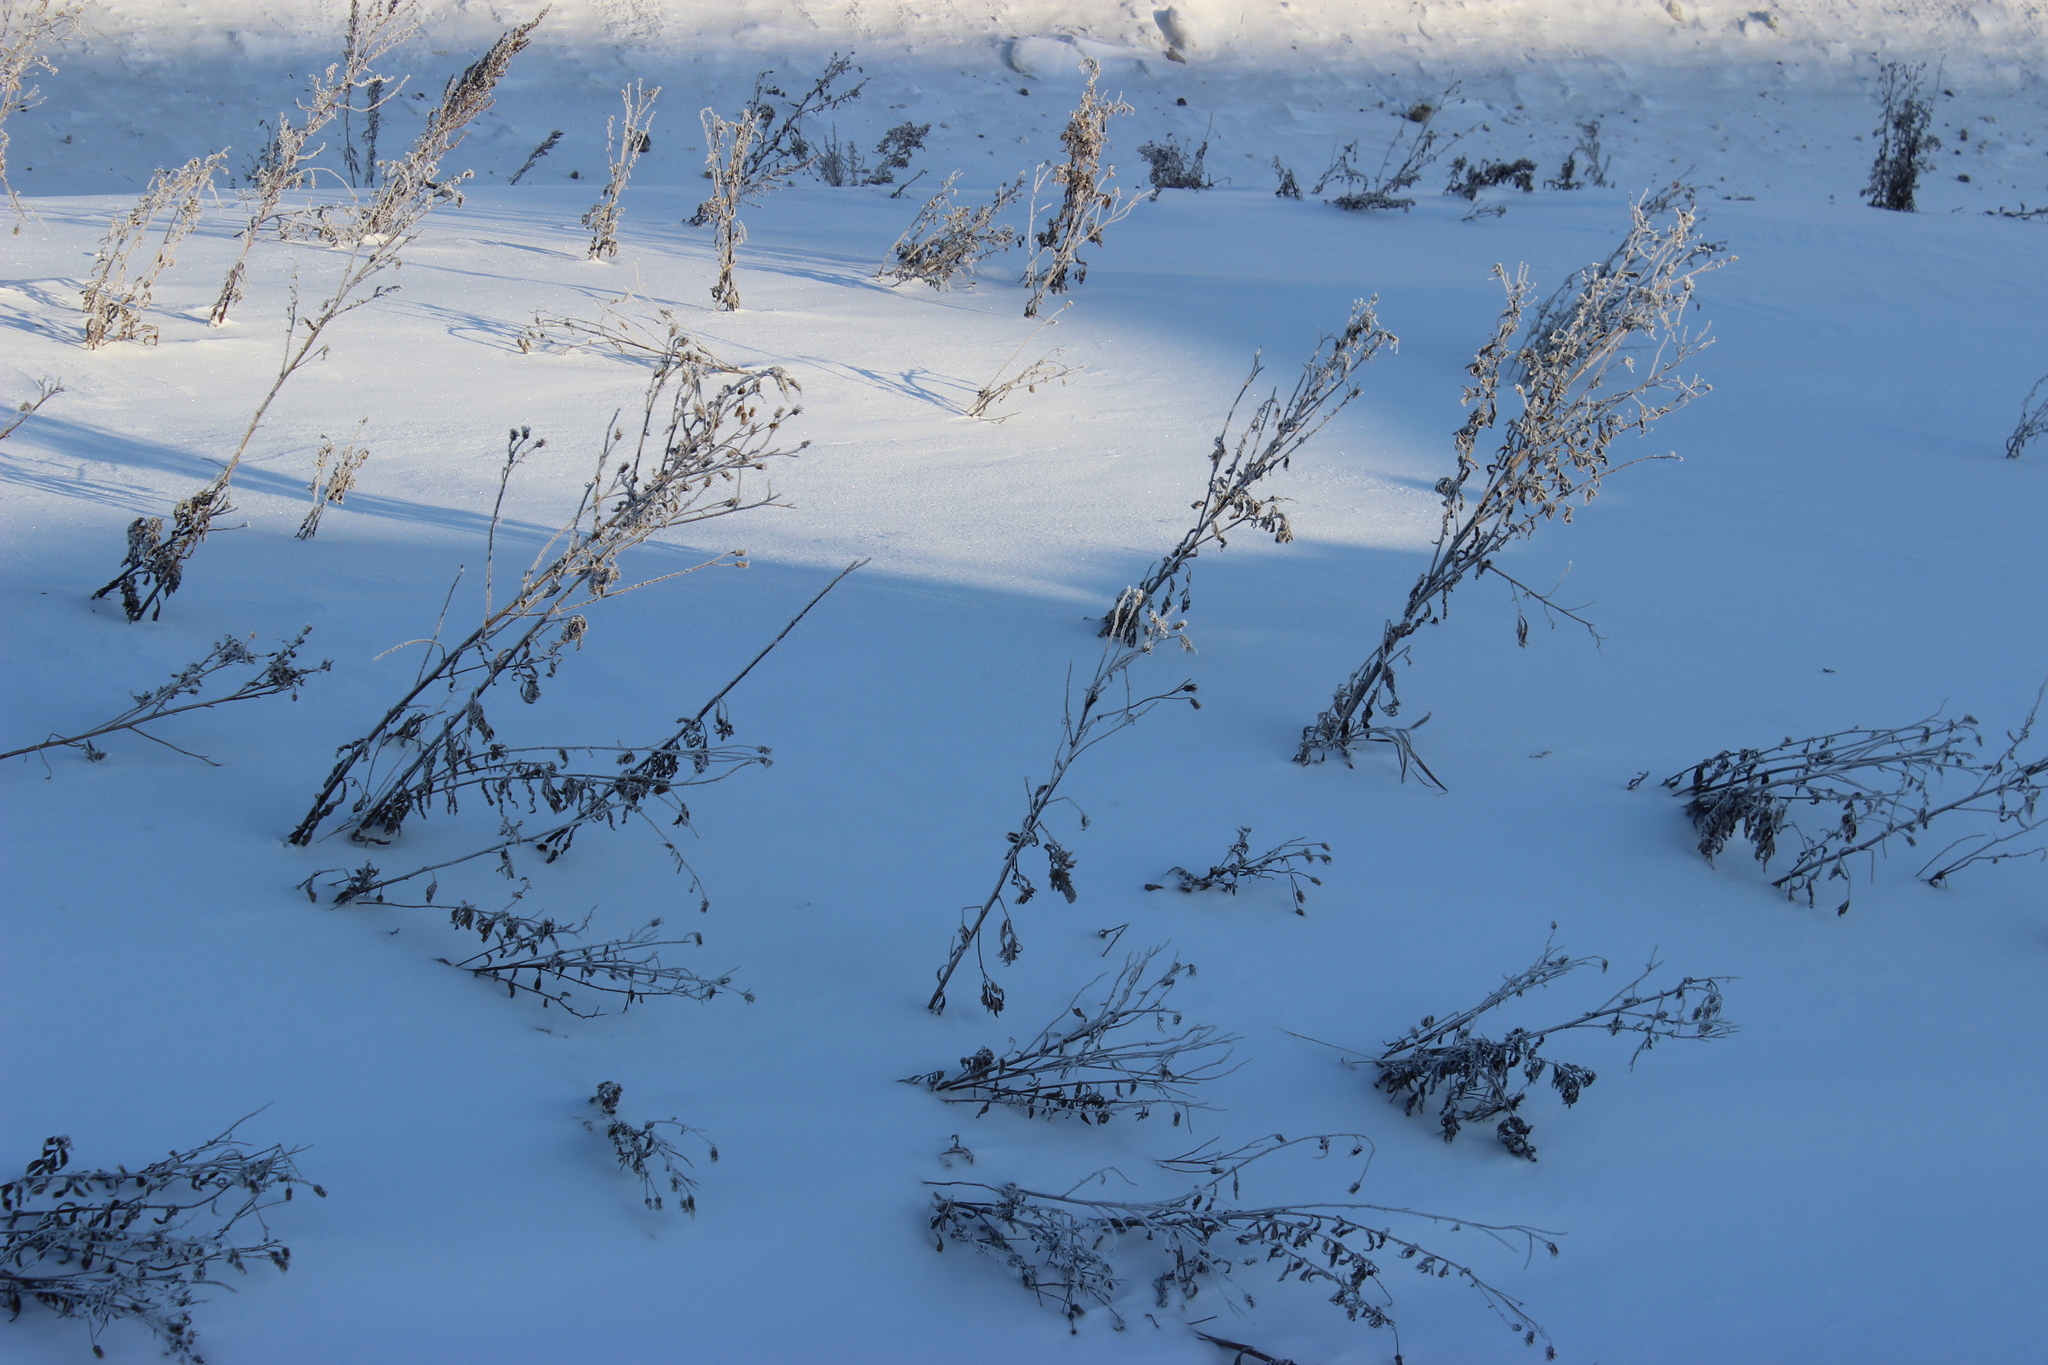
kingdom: Plantae
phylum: Tracheophyta
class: Magnoliopsida
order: Asterales
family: Asteraceae
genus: Cirsium
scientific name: Cirsium arvense
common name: Creeping thistle
